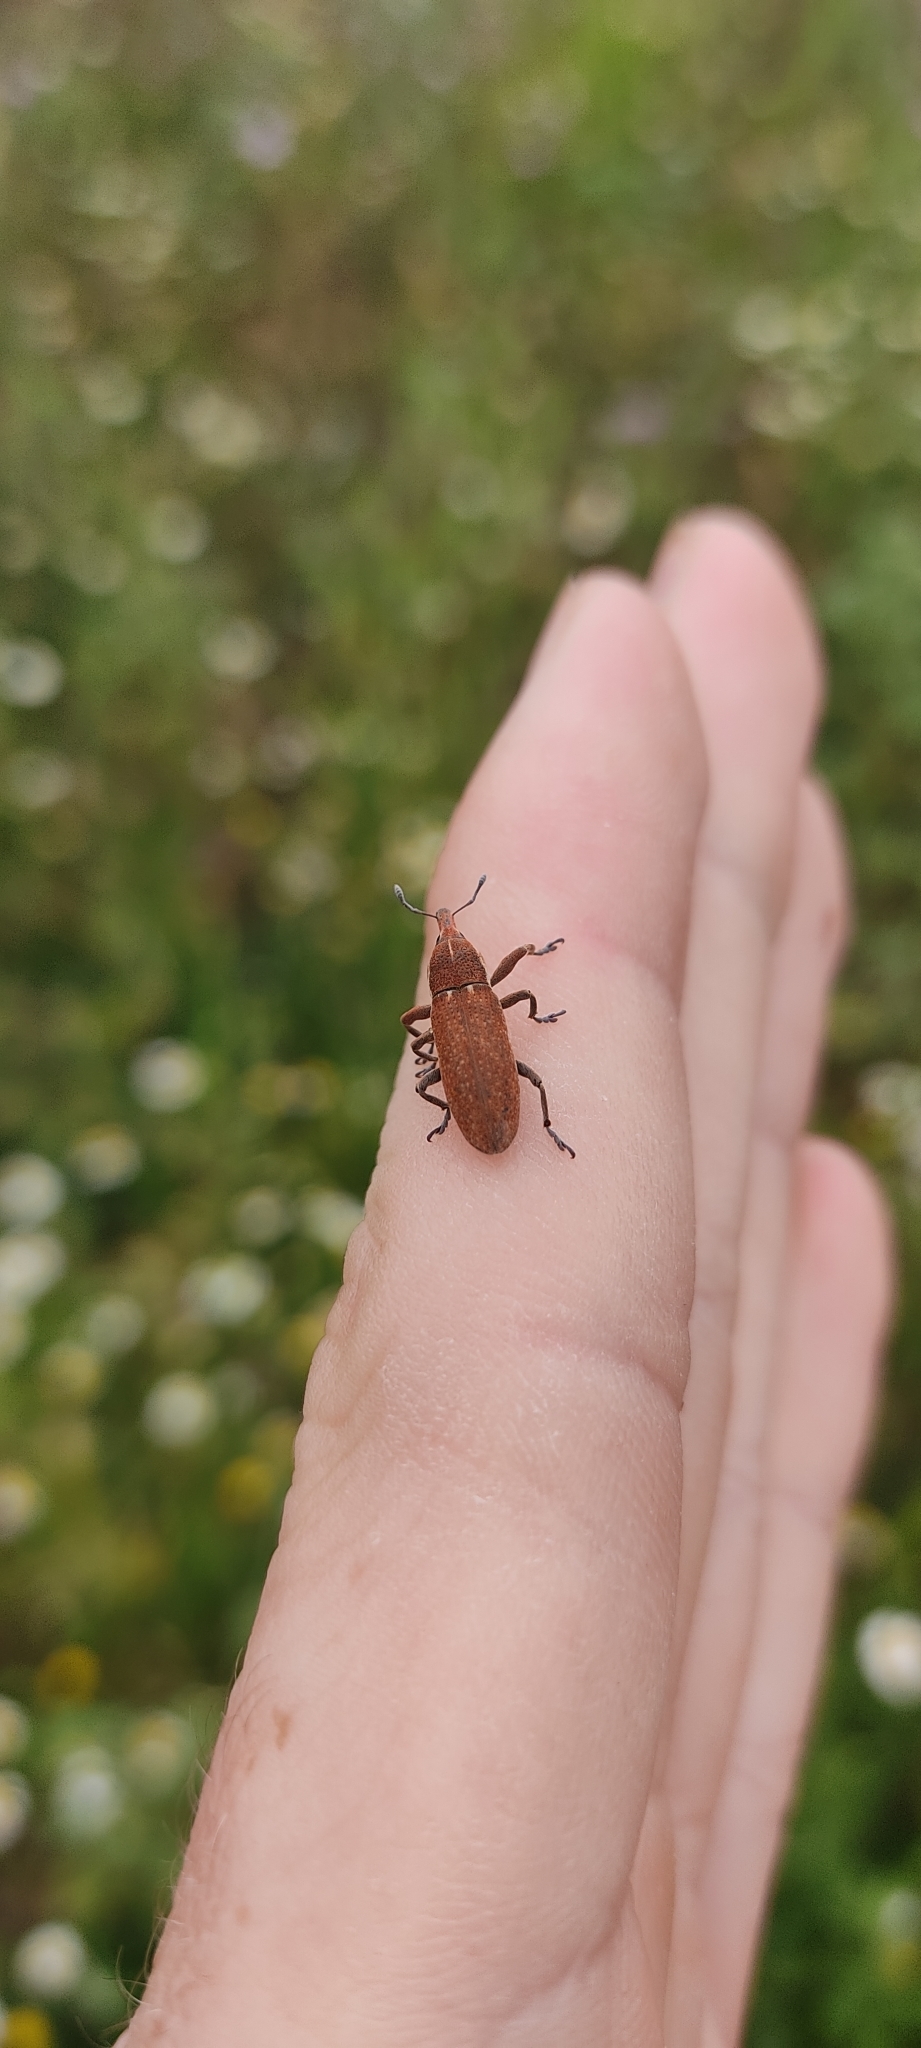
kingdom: Animalia
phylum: Arthropoda
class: Insecta
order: Coleoptera
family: Curculionidae
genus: Lixus
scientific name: Lixus punctiventris
